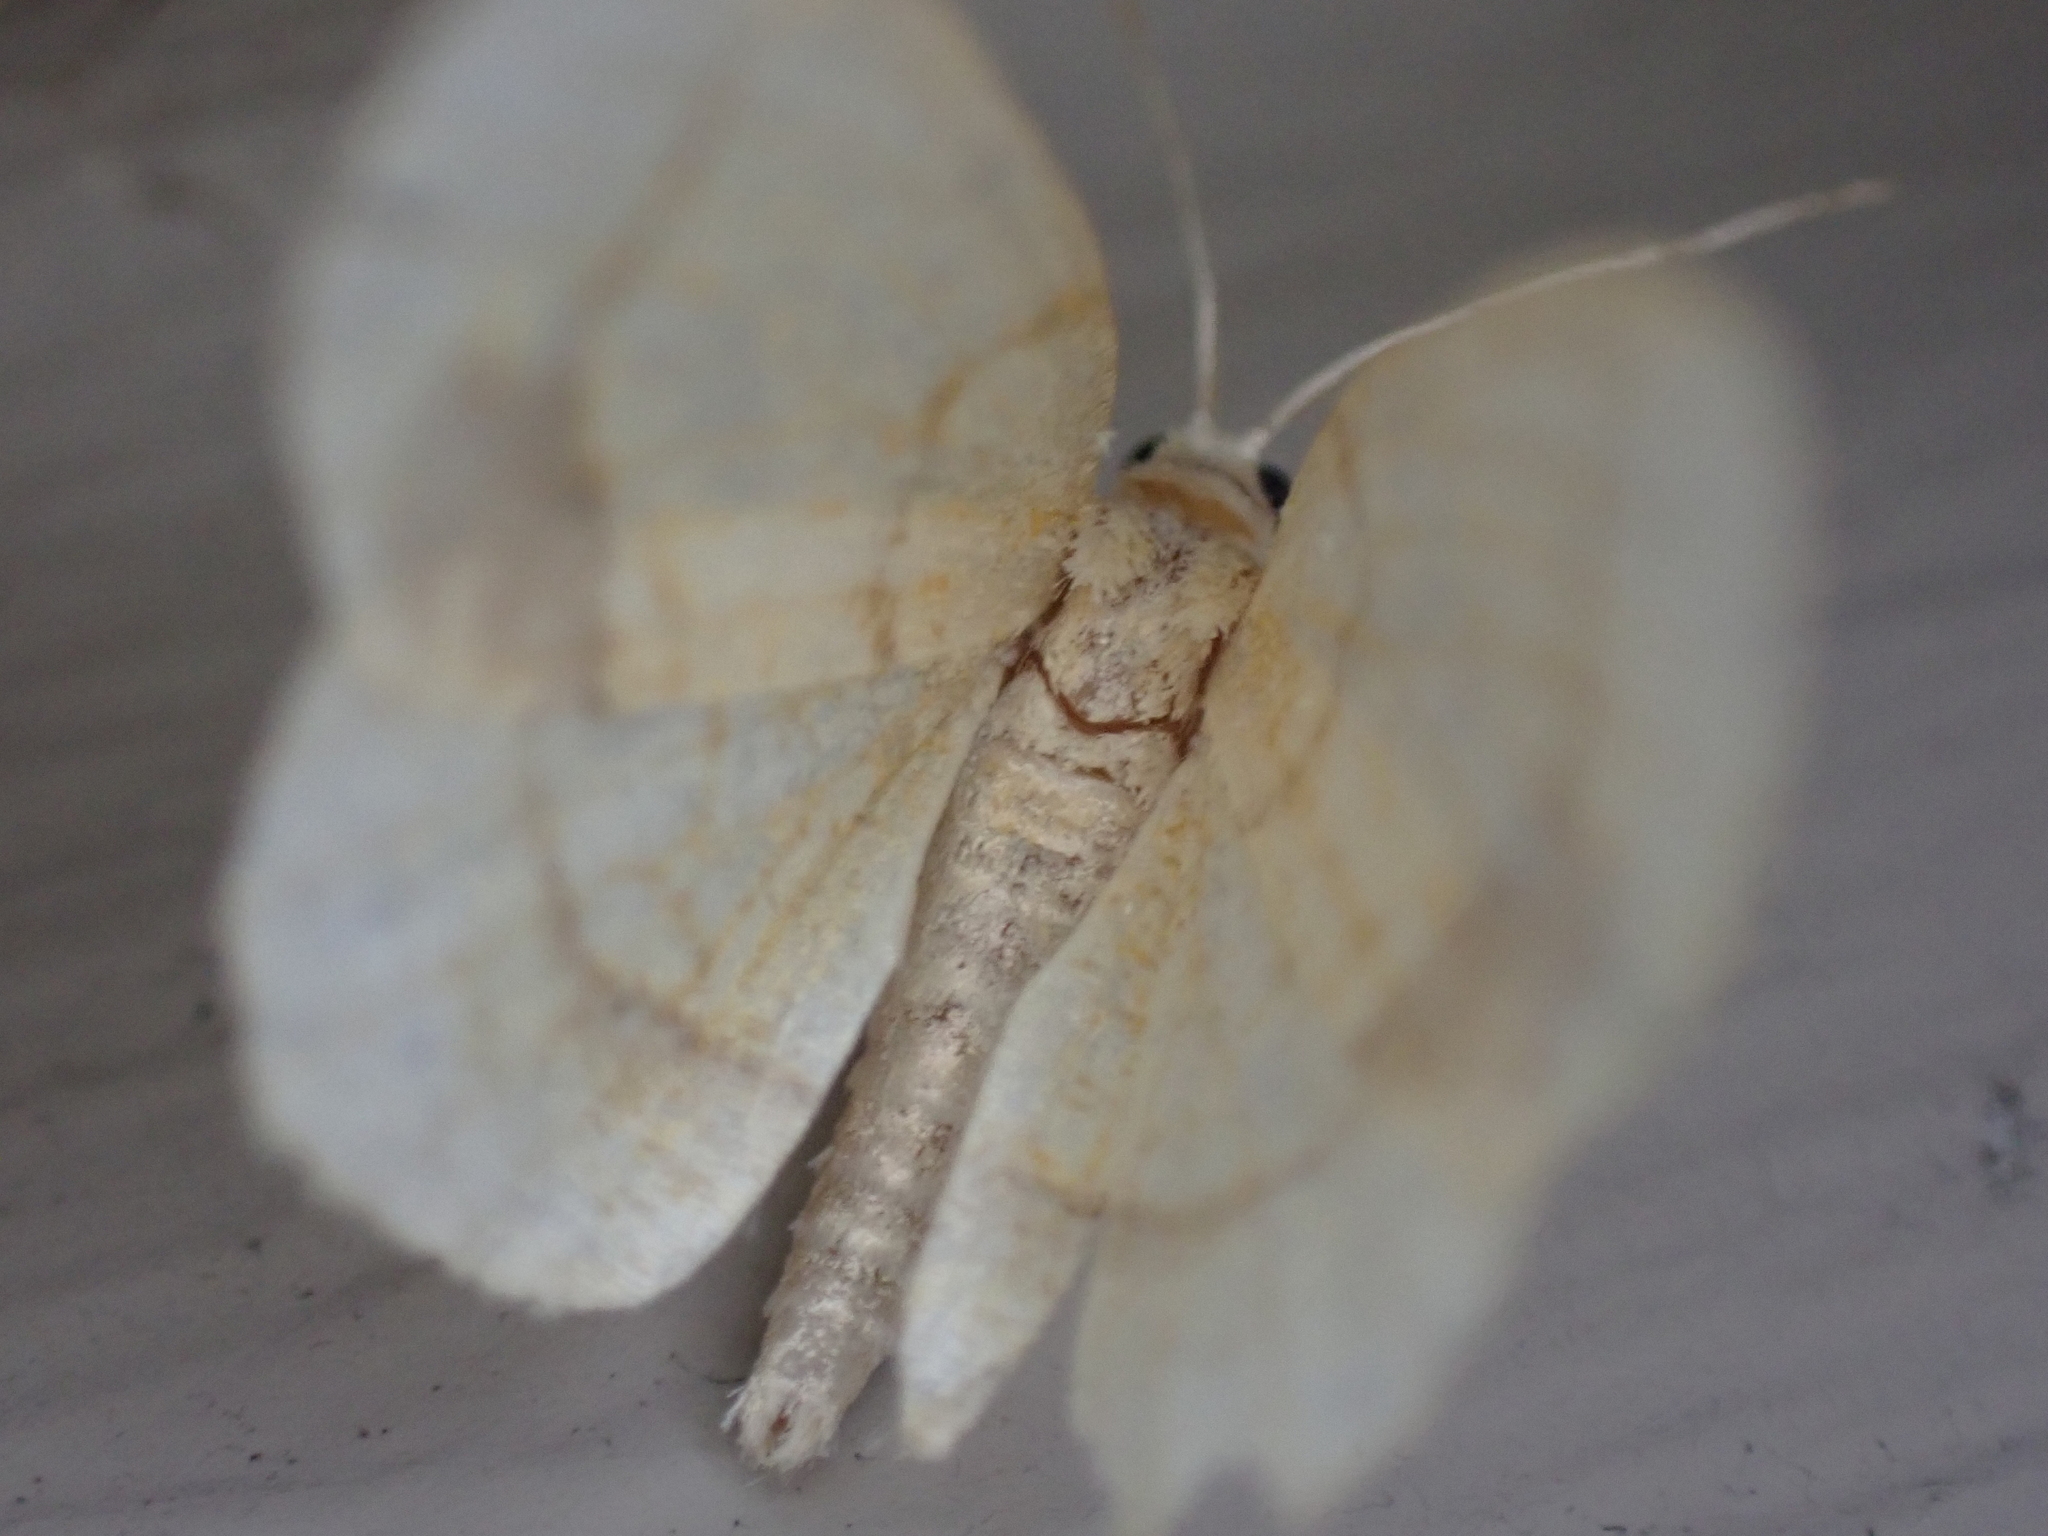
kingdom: Animalia
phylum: Arthropoda
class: Insecta
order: Lepidoptera
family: Geometridae
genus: Nematocampa
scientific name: Nematocampa resistaria
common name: Horned spanworm moth
